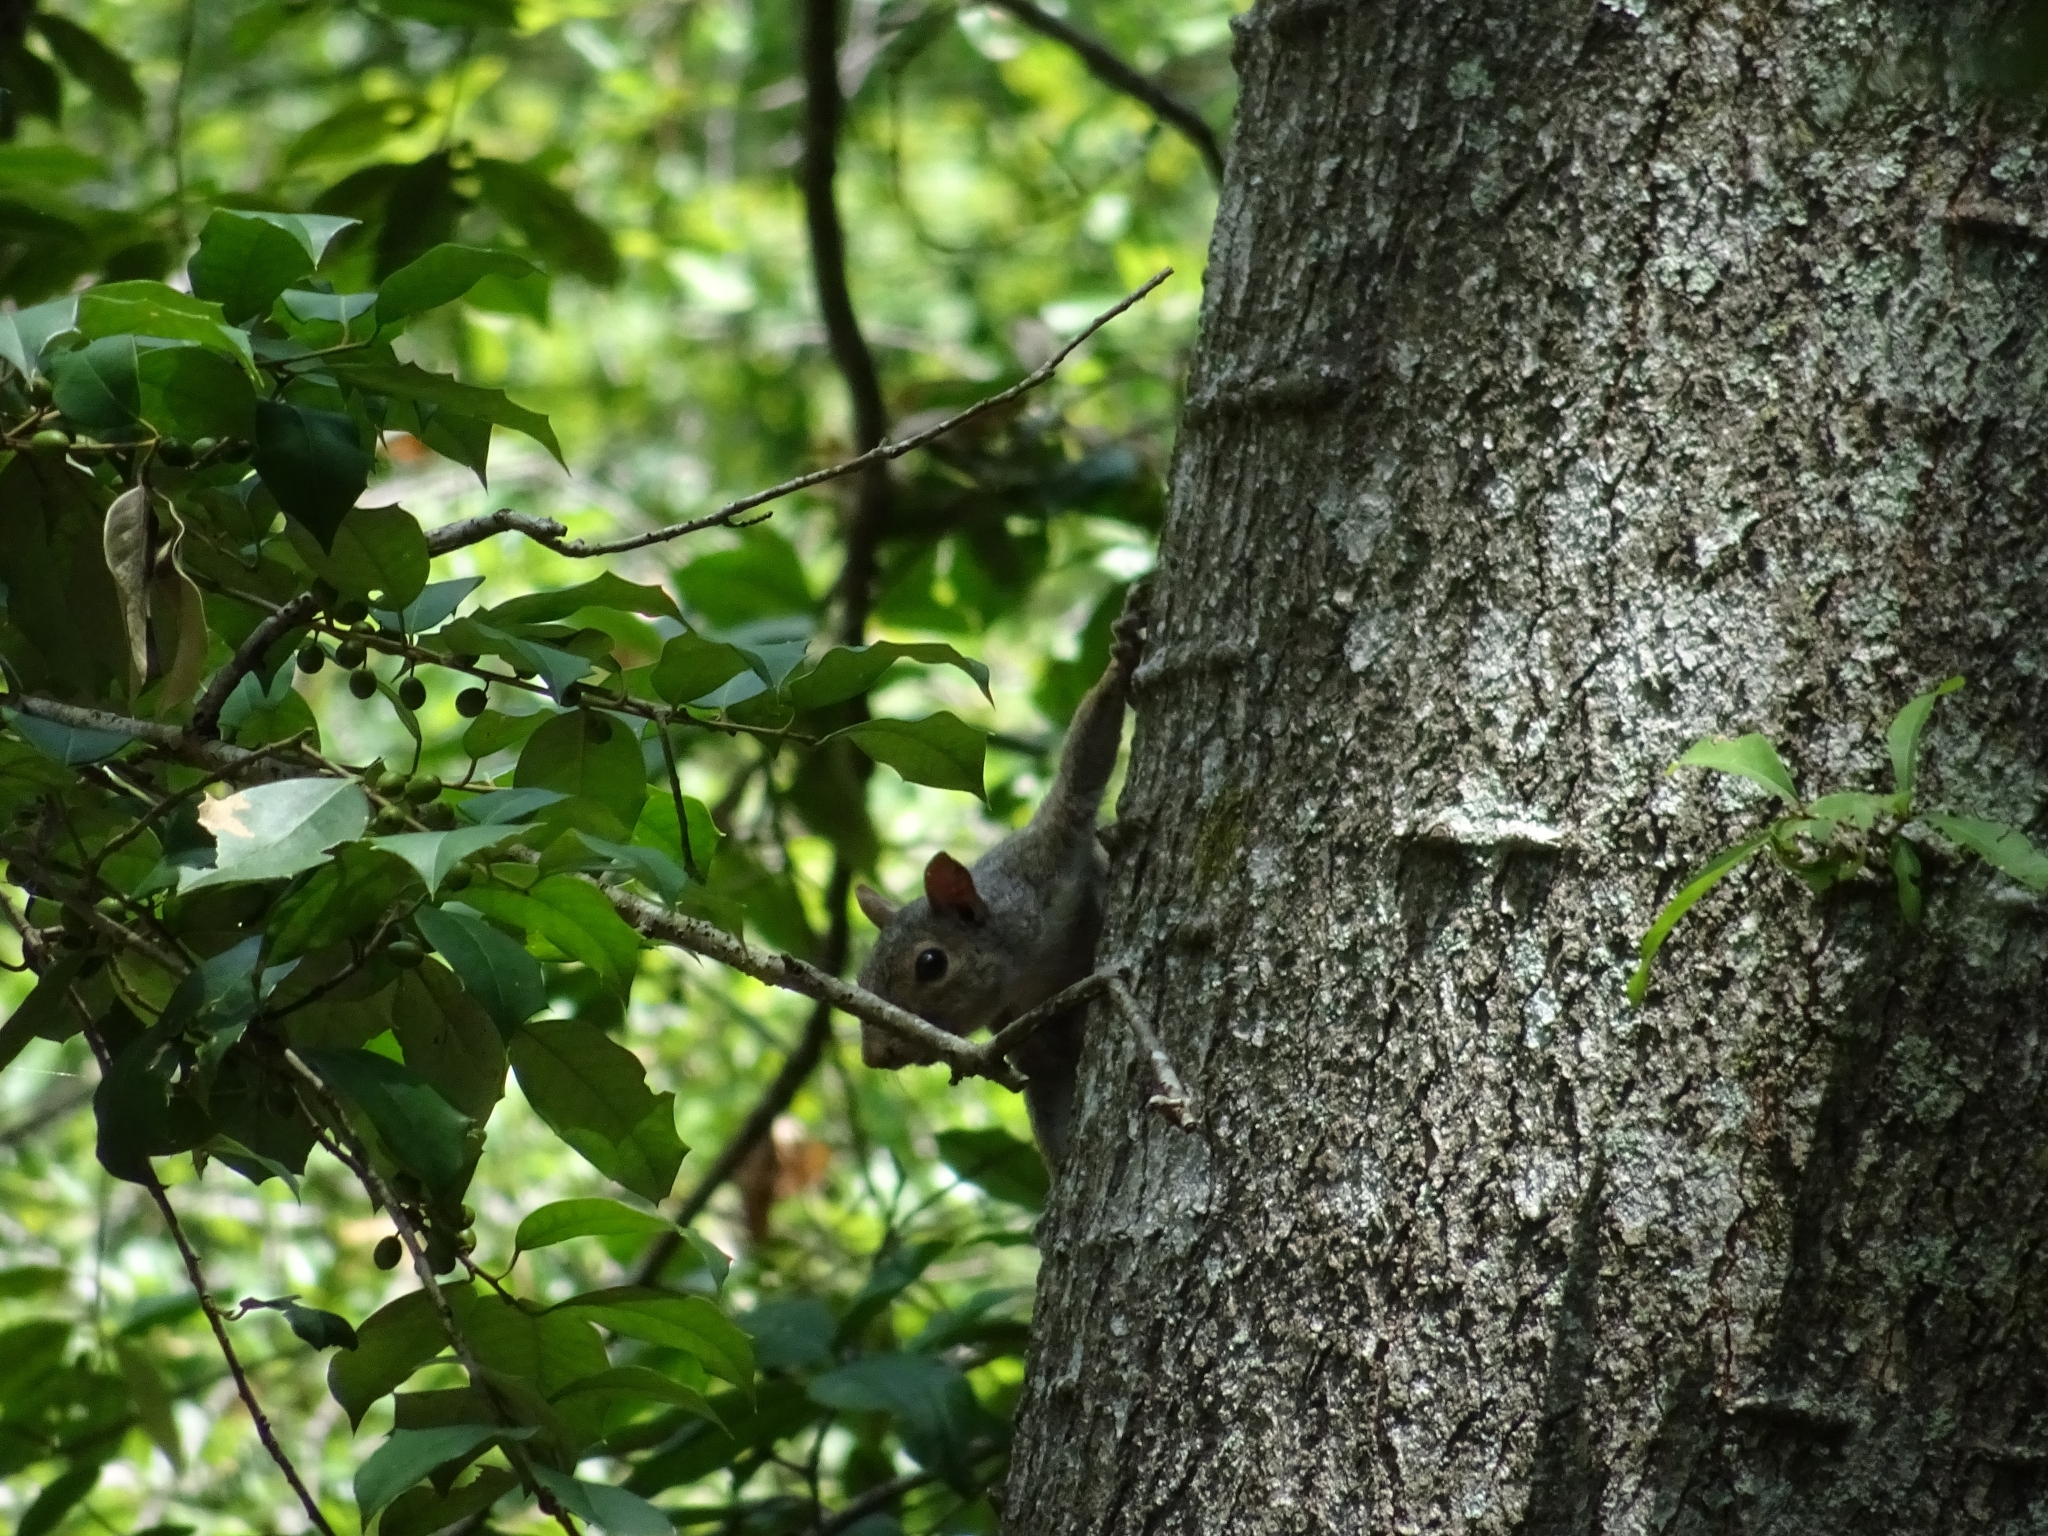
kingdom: Animalia
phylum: Chordata
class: Mammalia
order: Rodentia
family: Sciuridae
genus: Sciurus
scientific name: Sciurus carolinensis
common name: Eastern gray squirrel
